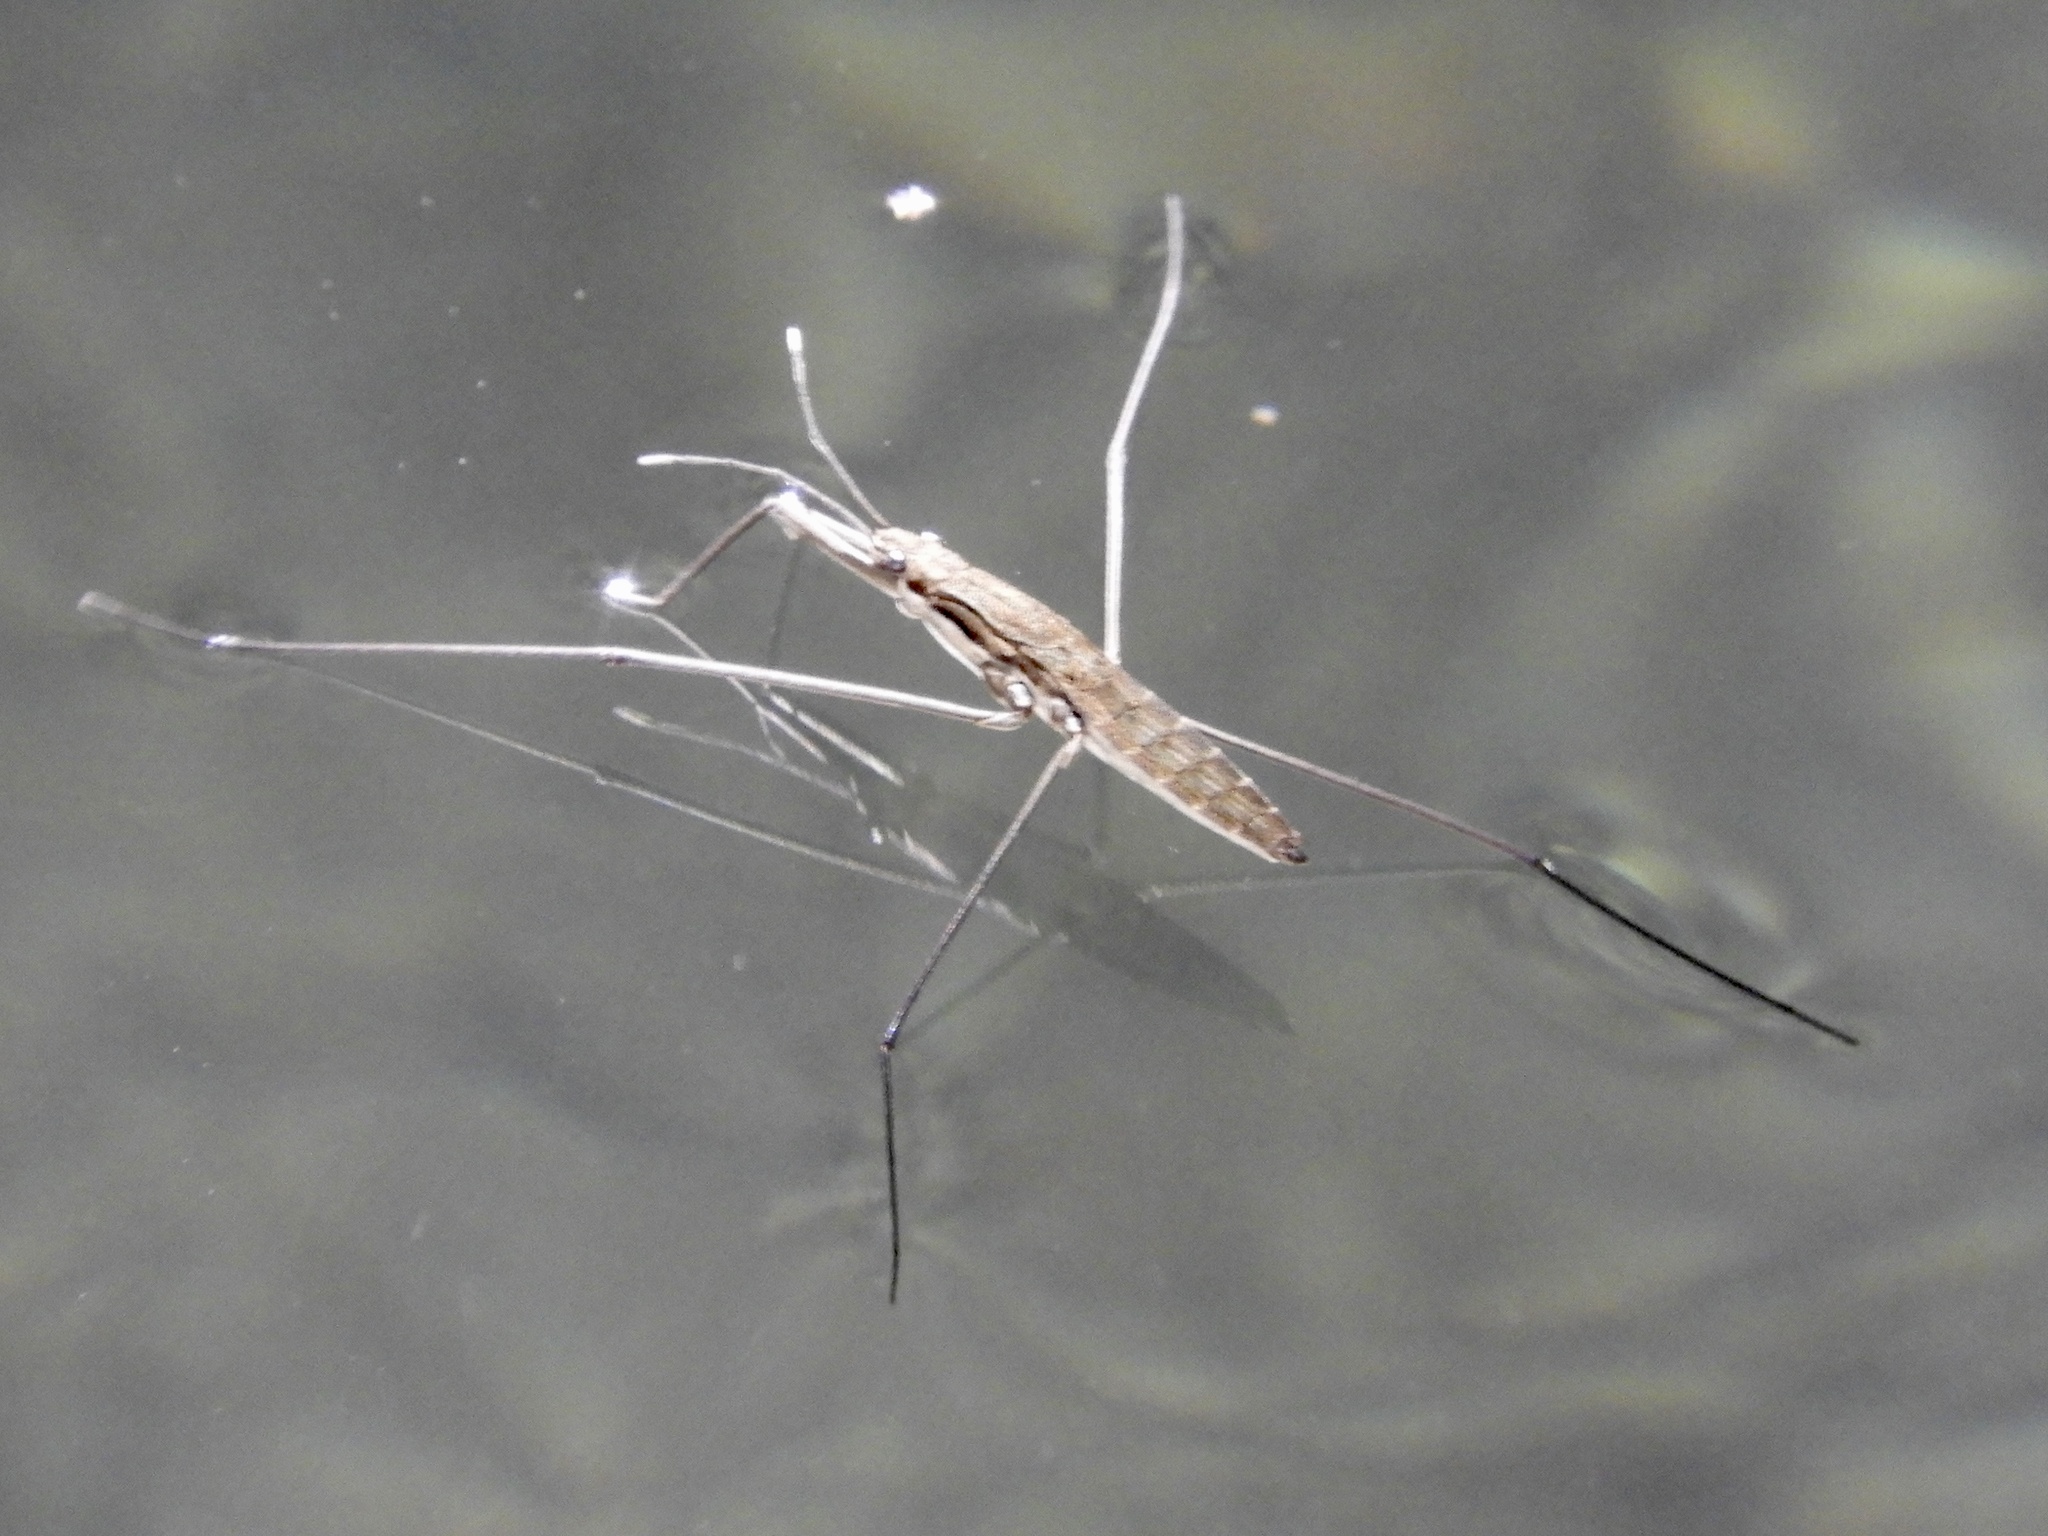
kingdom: Animalia
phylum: Arthropoda
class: Insecta
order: Hemiptera
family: Gerridae
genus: Aquarius
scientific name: Aquarius
